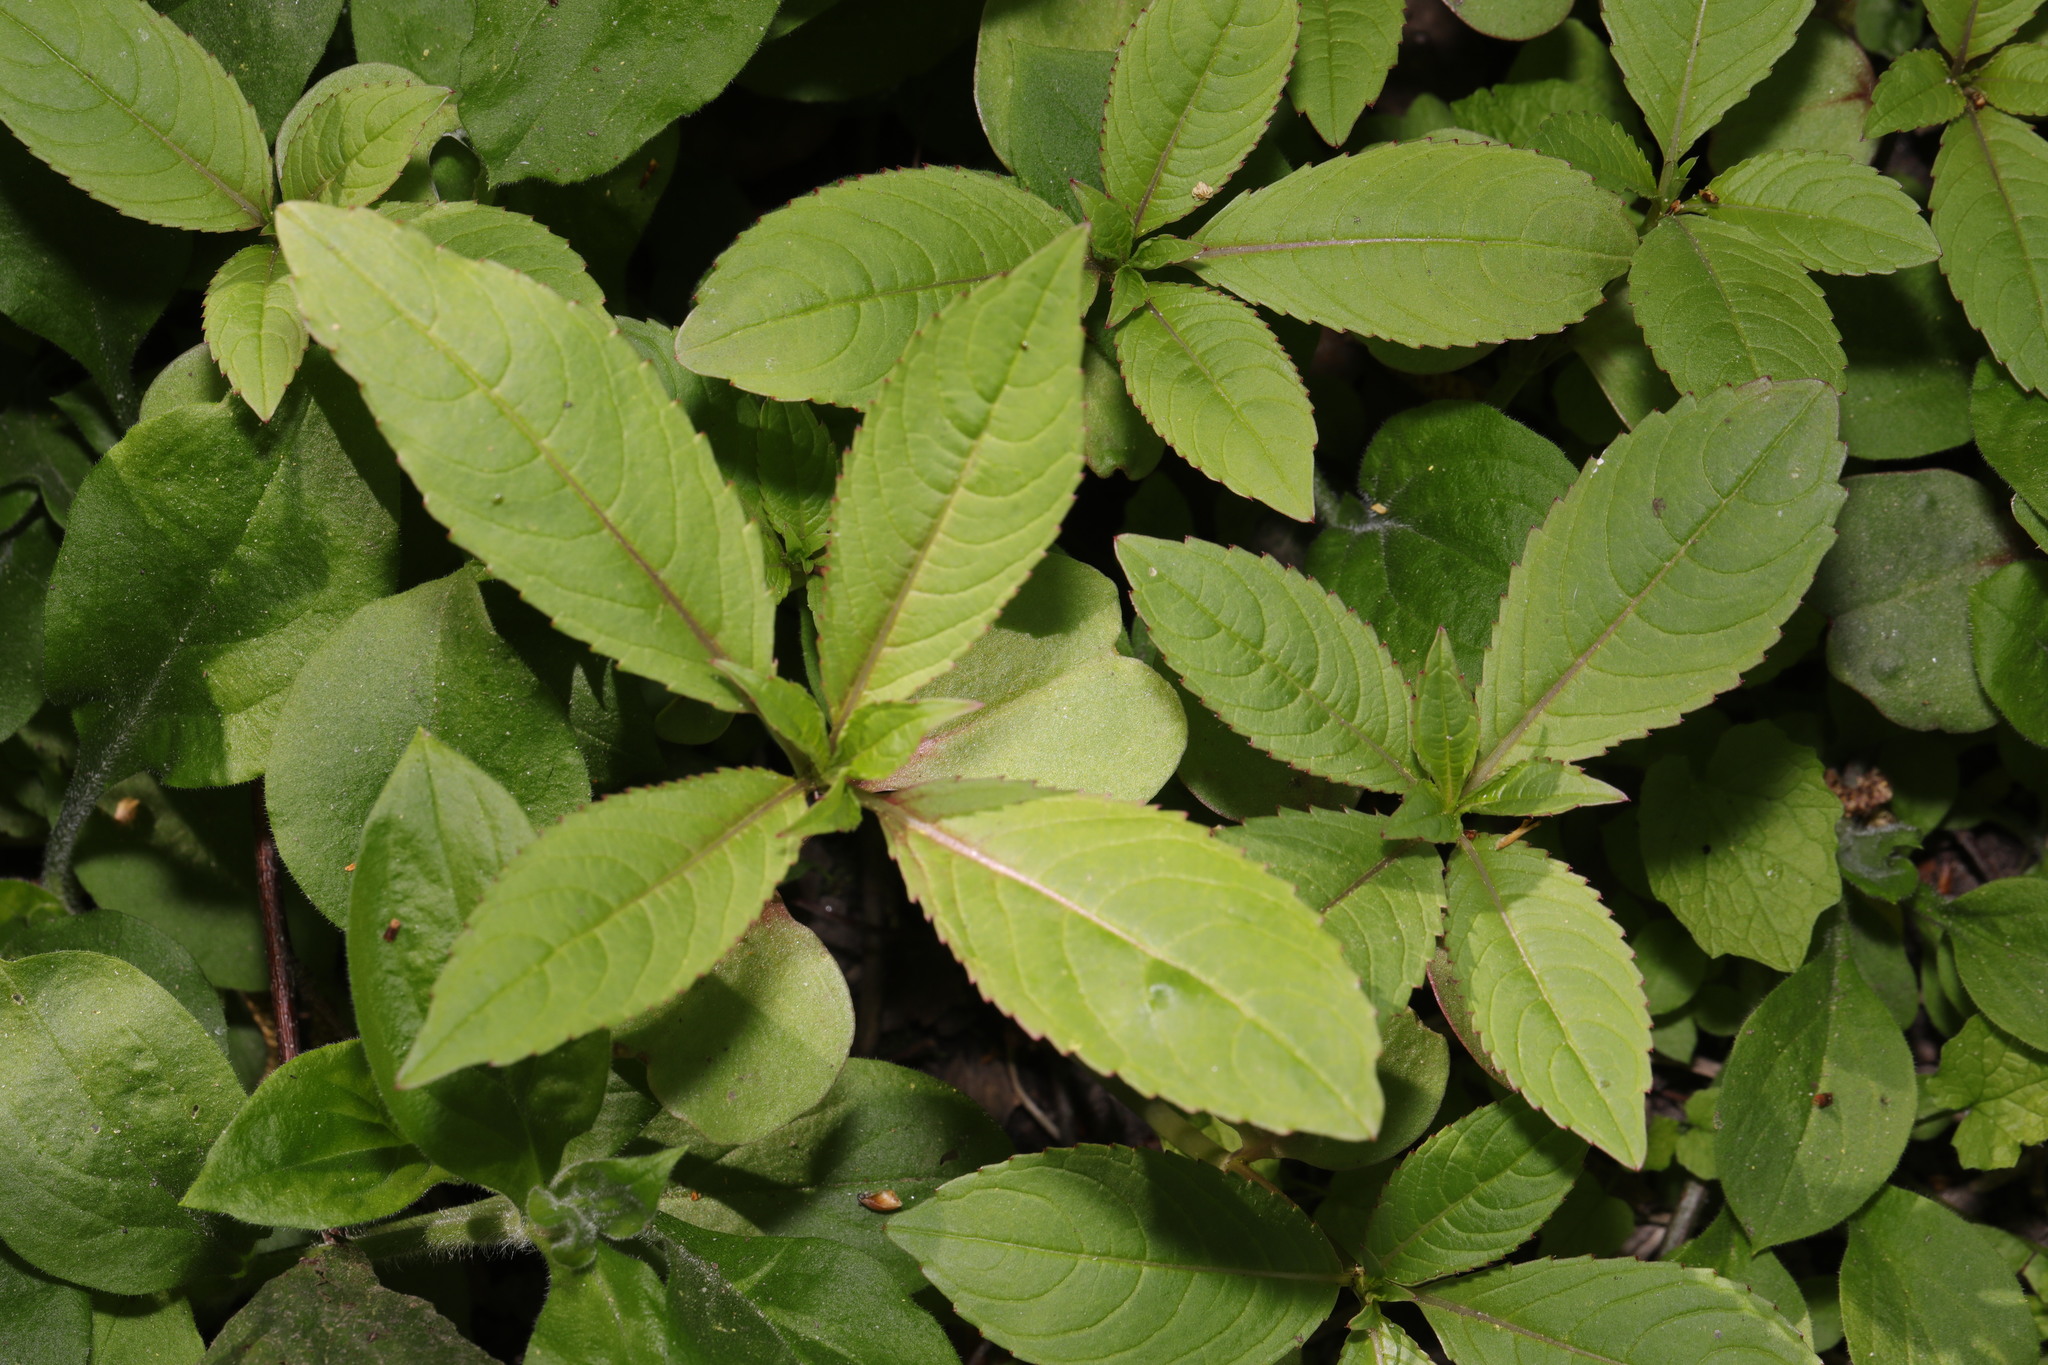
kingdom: Plantae
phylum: Tracheophyta
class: Magnoliopsida
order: Ericales
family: Balsaminaceae
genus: Impatiens
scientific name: Impatiens glandulifera
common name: Himalayan balsam
